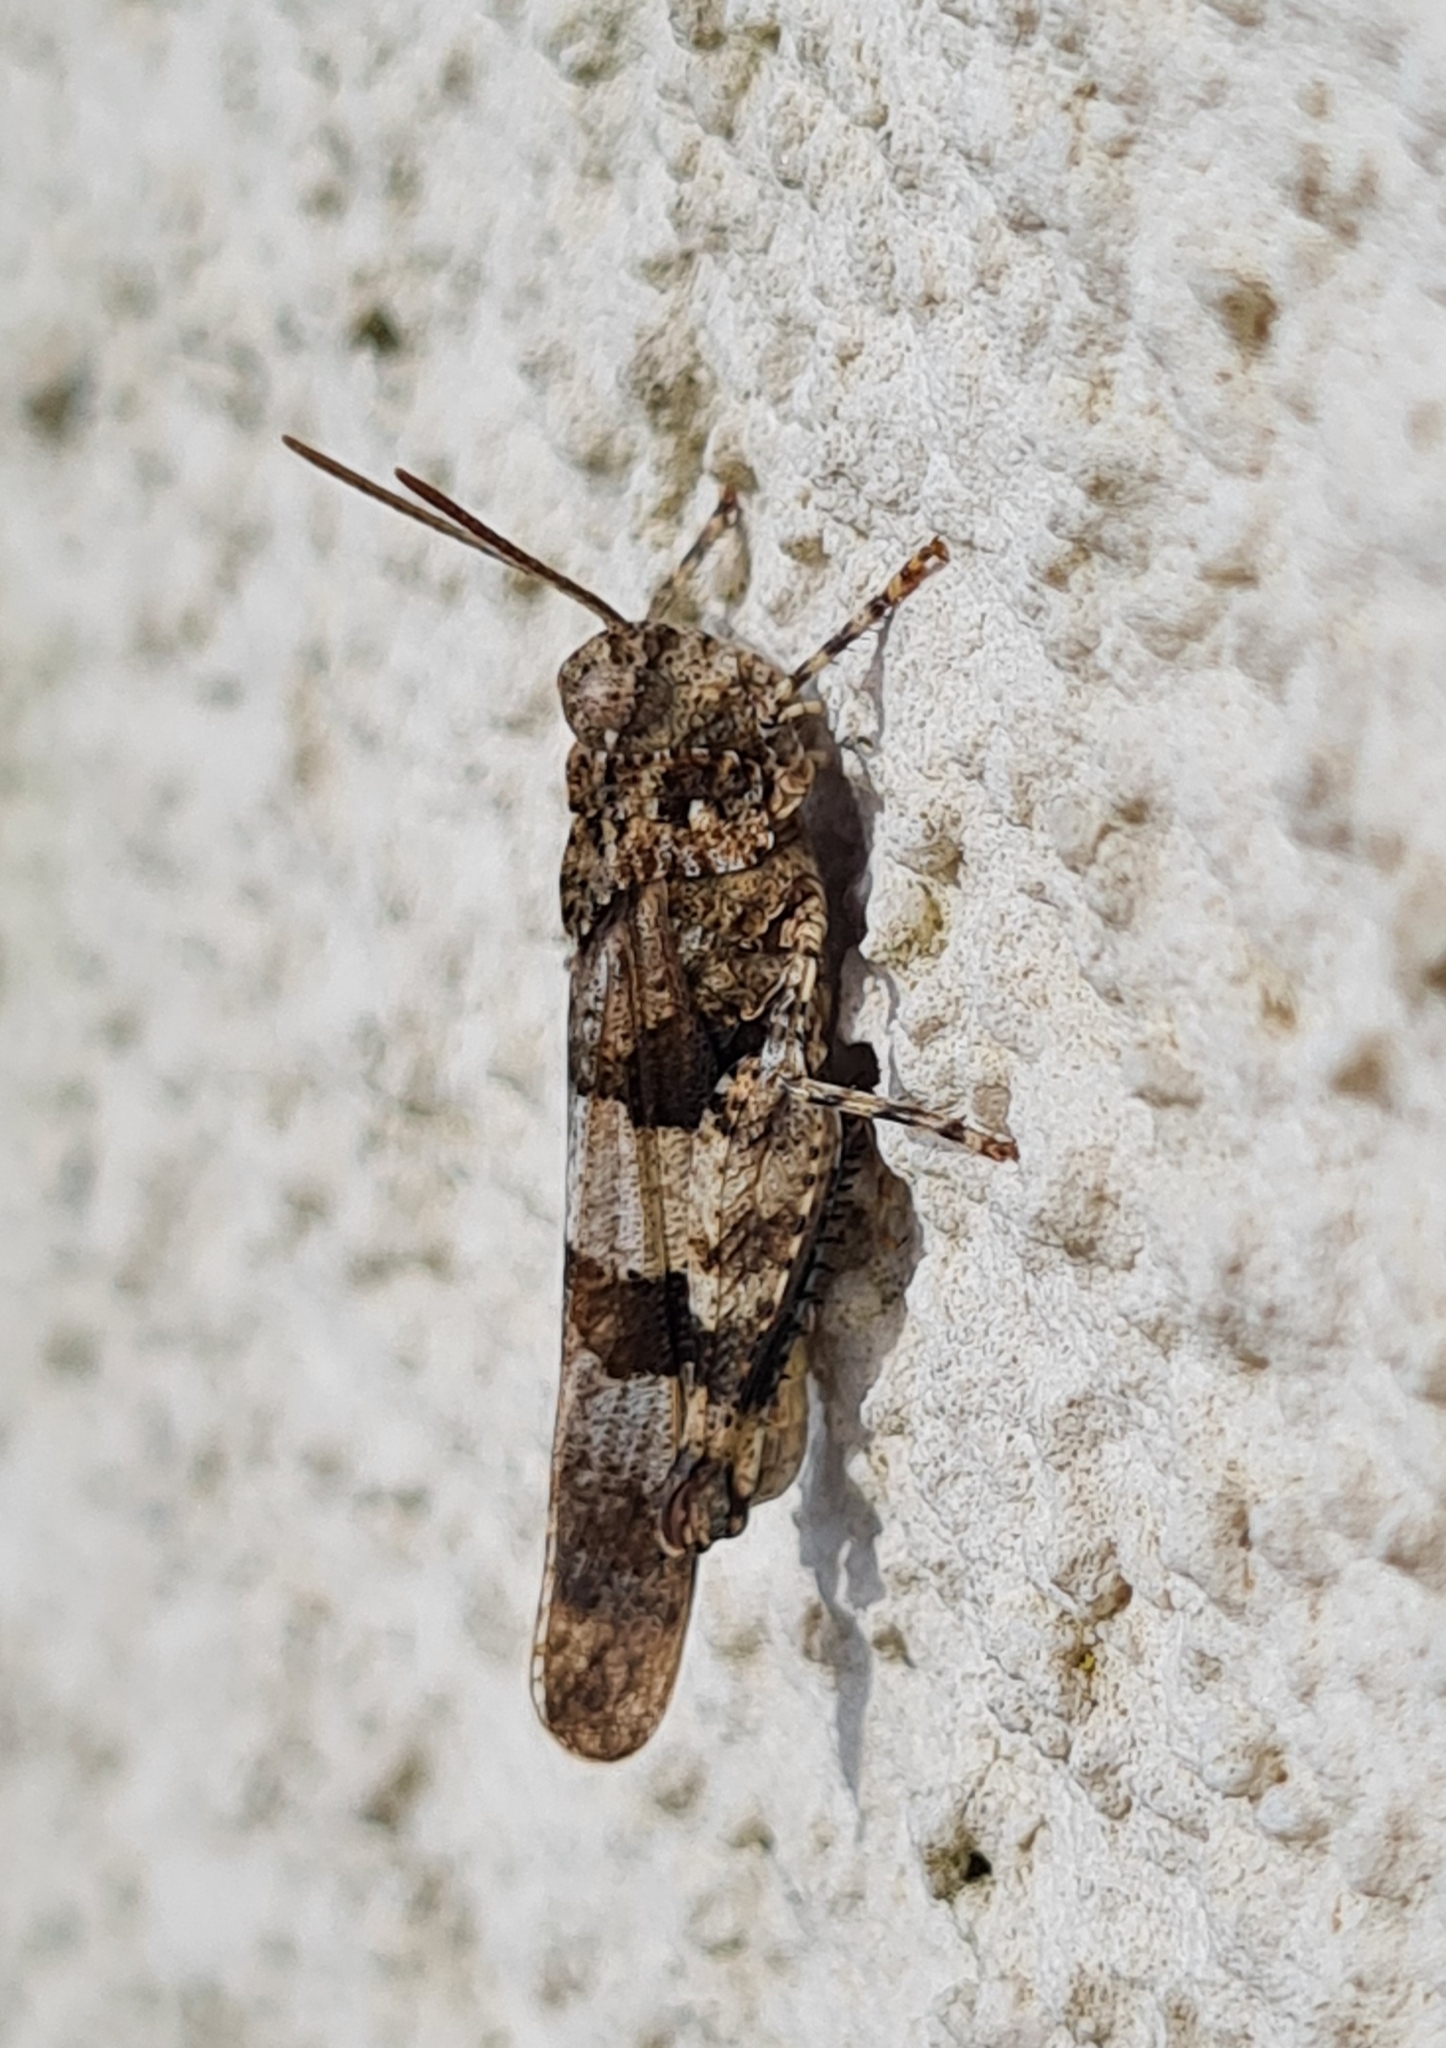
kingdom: Animalia
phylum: Arthropoda
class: Insecta
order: Orthoptera
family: Acrididae
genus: Oedipoda
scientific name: Oedipoda caerulescens
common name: Blue-winged grasshopper
